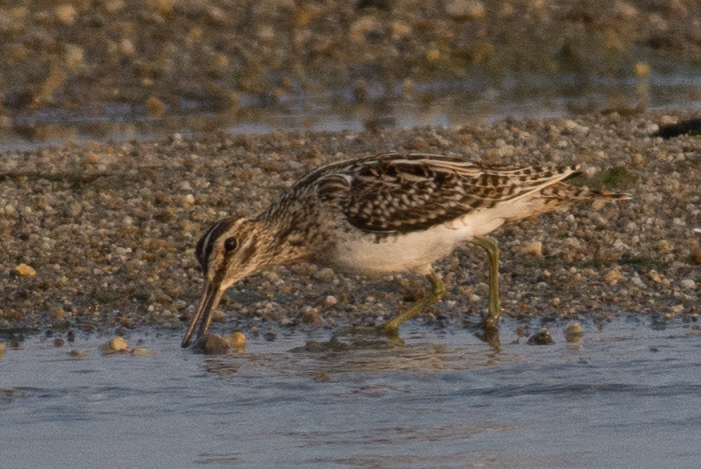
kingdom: Animalia
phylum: Chordata
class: Aves
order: Charadriiformes
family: Scolopacidae
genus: Gallinago
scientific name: Gallinago gallinago
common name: Common snipe
